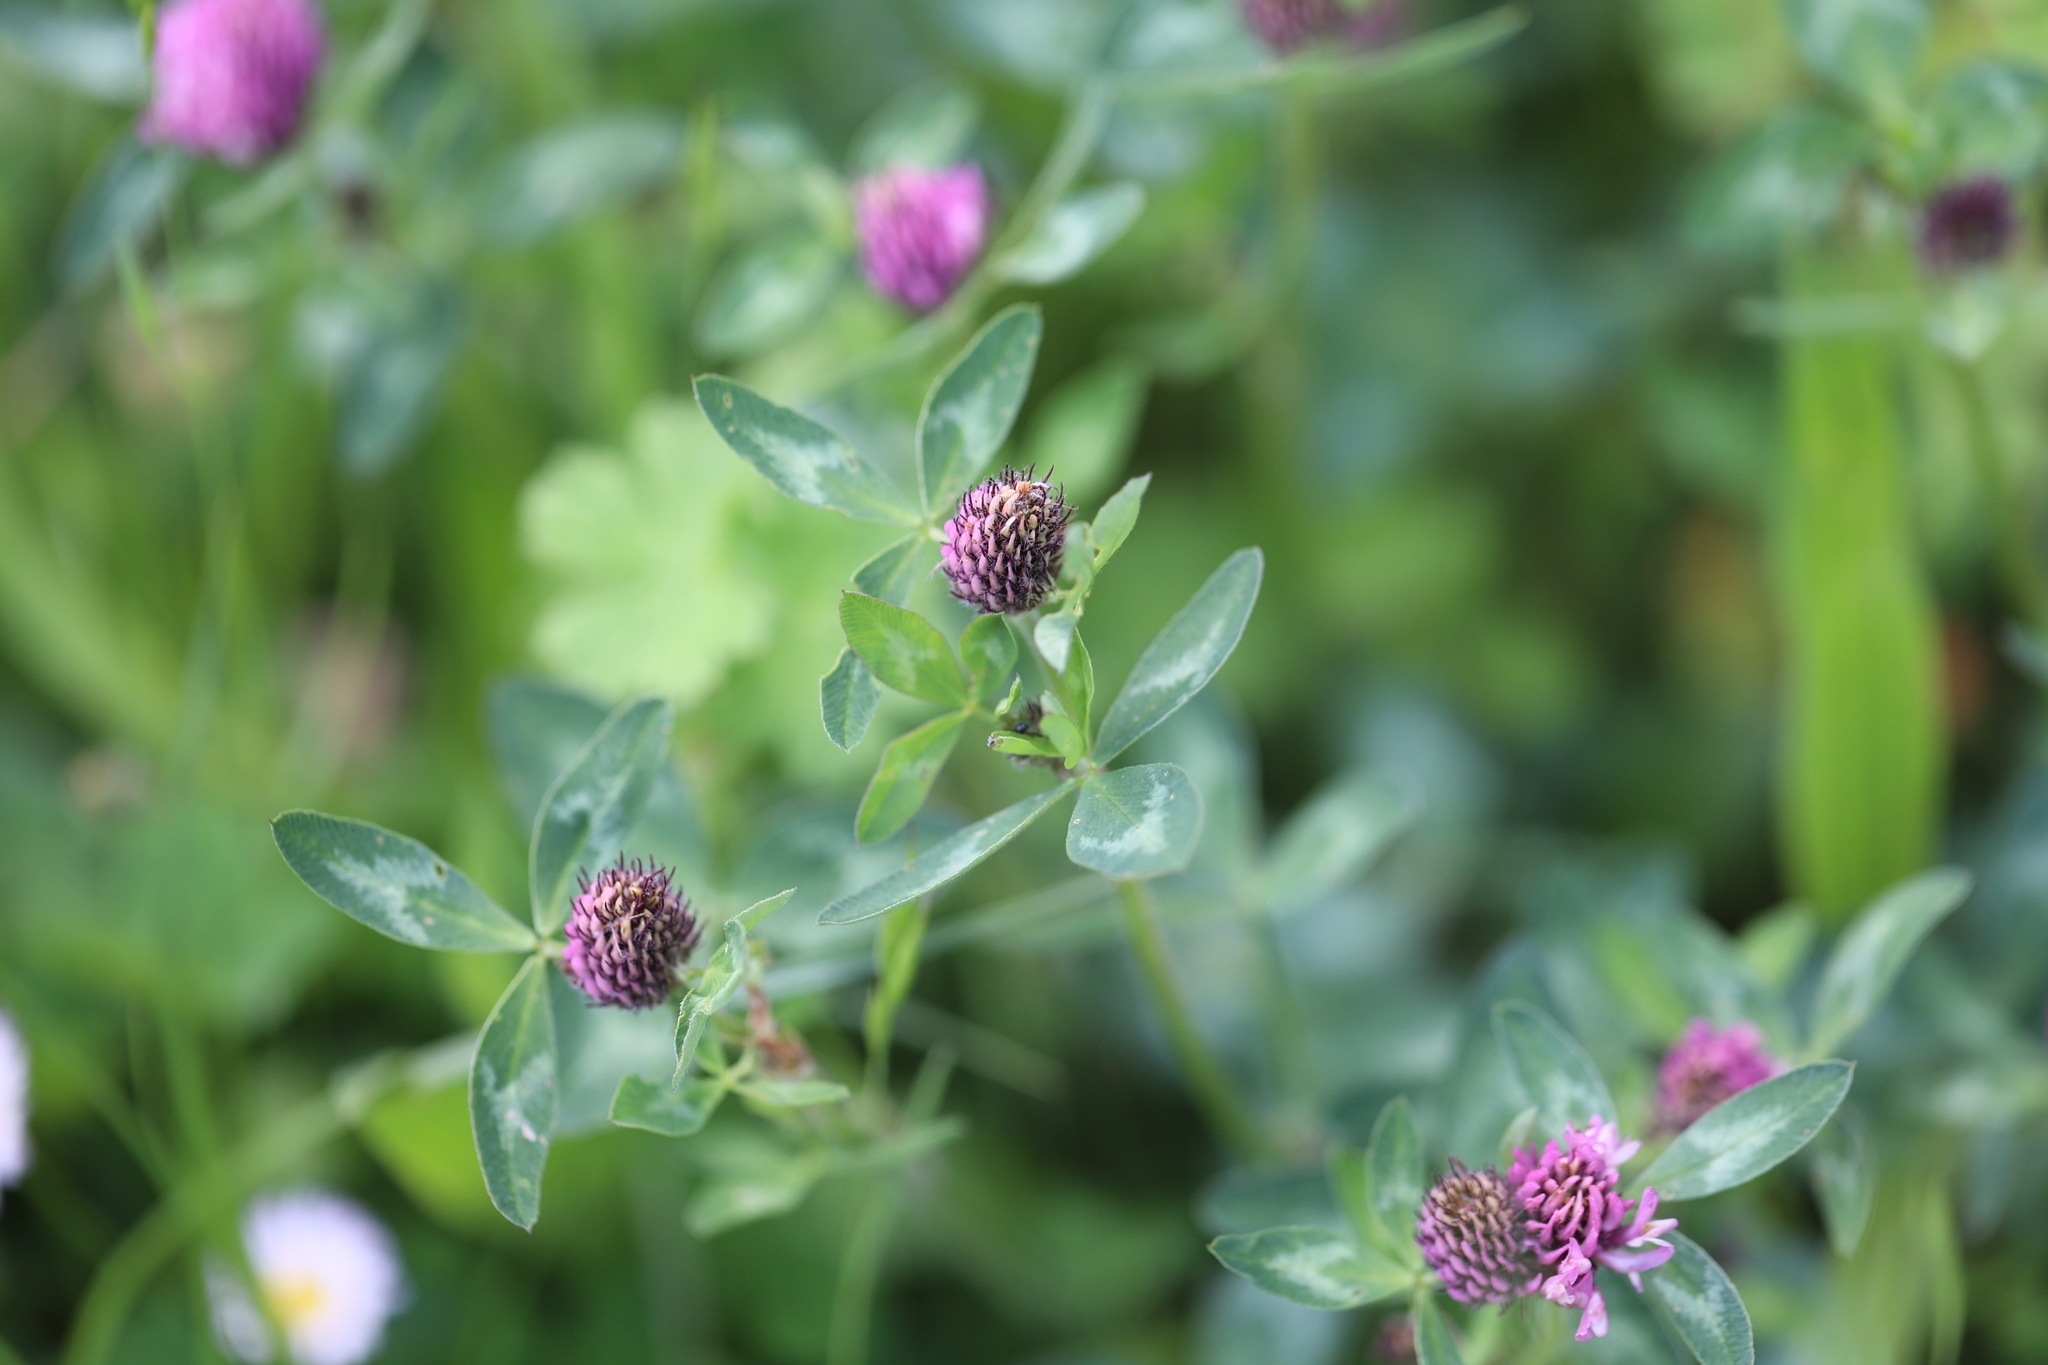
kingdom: Plantae
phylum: Tracheophyta
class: Magnoliopsida
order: Fabales
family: Fabaceae
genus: Trifolium
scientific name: Trifolium pratense
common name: Red clover
